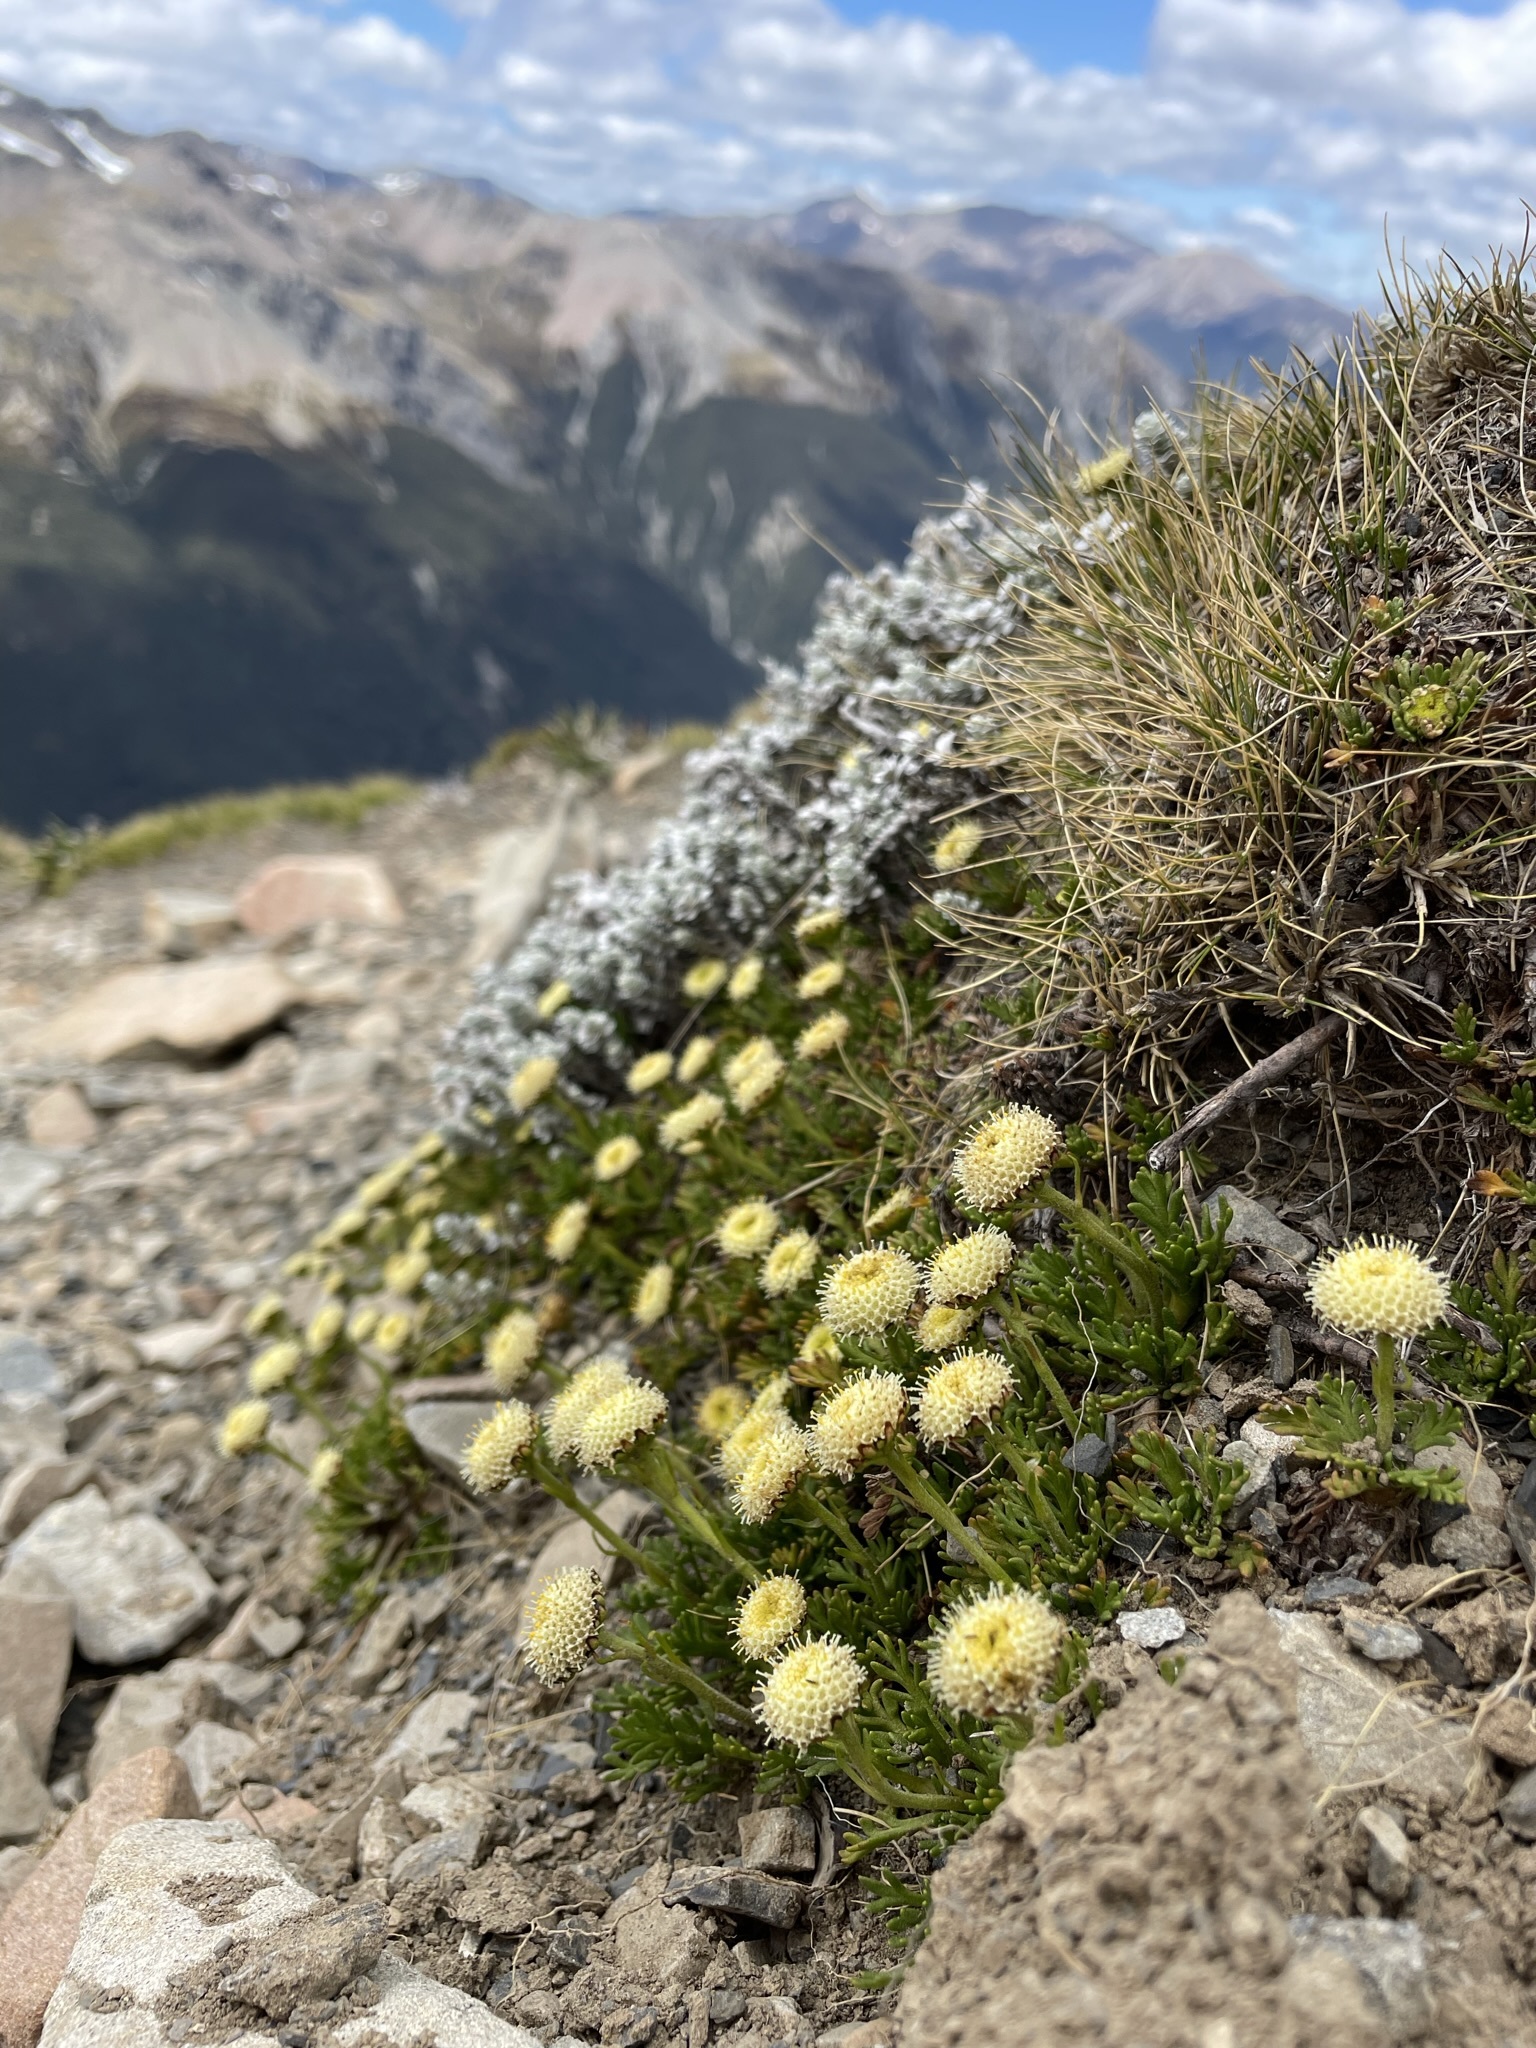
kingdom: Plantae
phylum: Tracheophyta
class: Magnoliopsida
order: Asterales
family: Asteraceae
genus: Leptinella
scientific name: Leptinella pyrethrifolia
